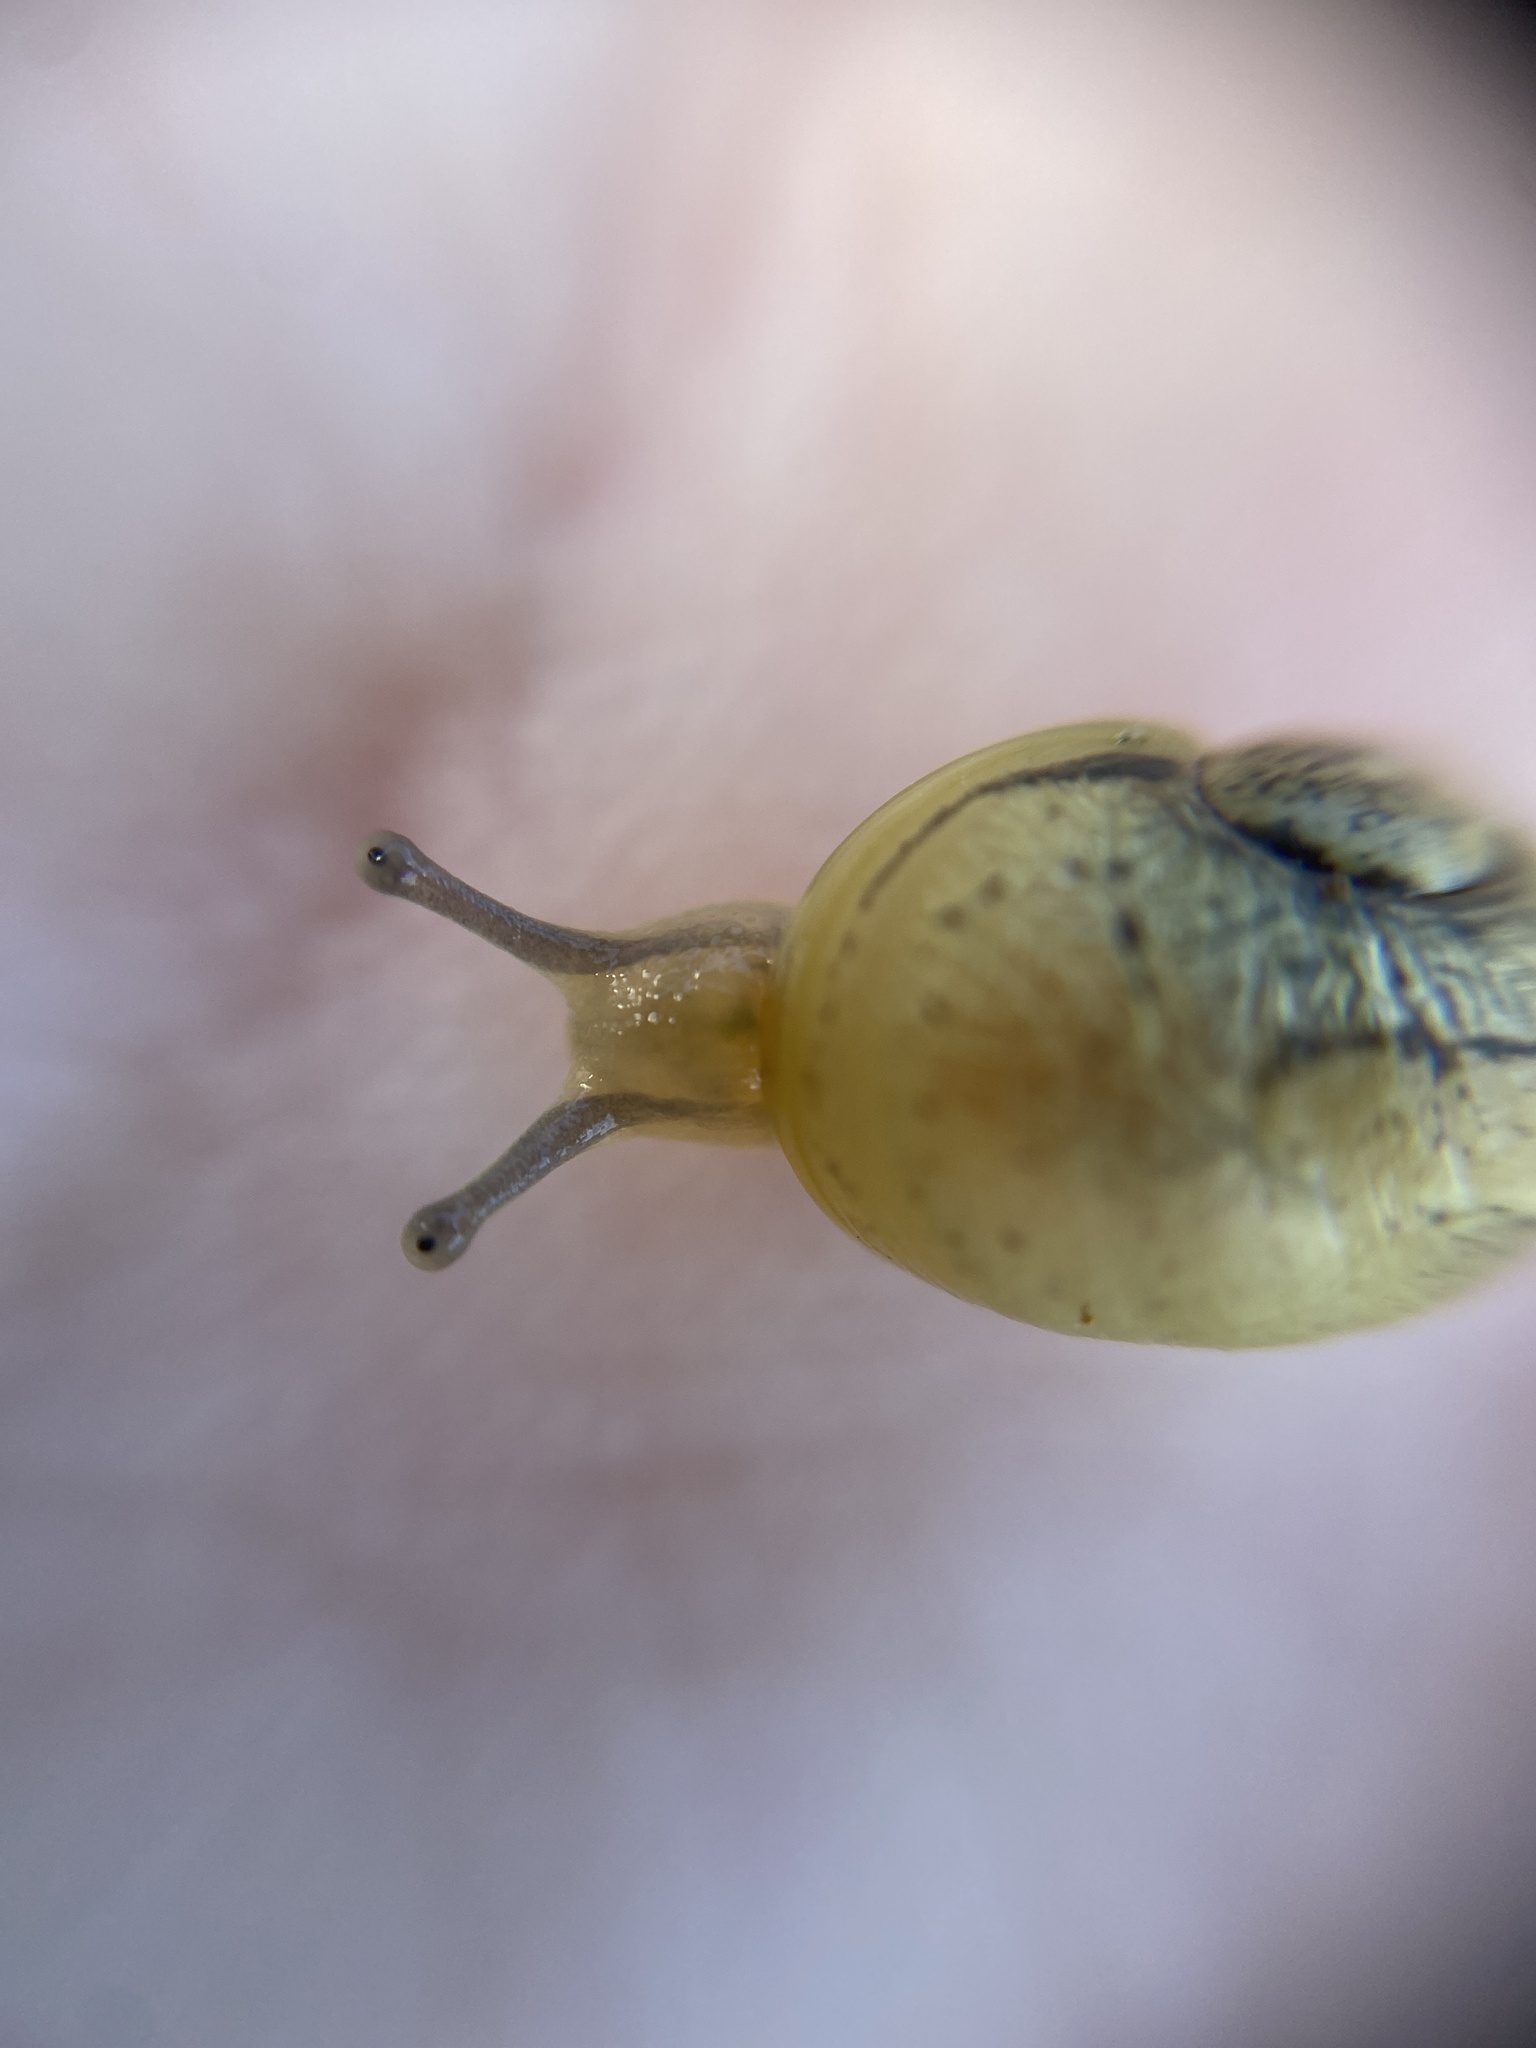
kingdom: Animalia
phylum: Mollusca
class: Gastropoda
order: Stylommatophora
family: Helicidae
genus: Cantareus
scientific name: Cantareus apertus
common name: Green gardensnail
